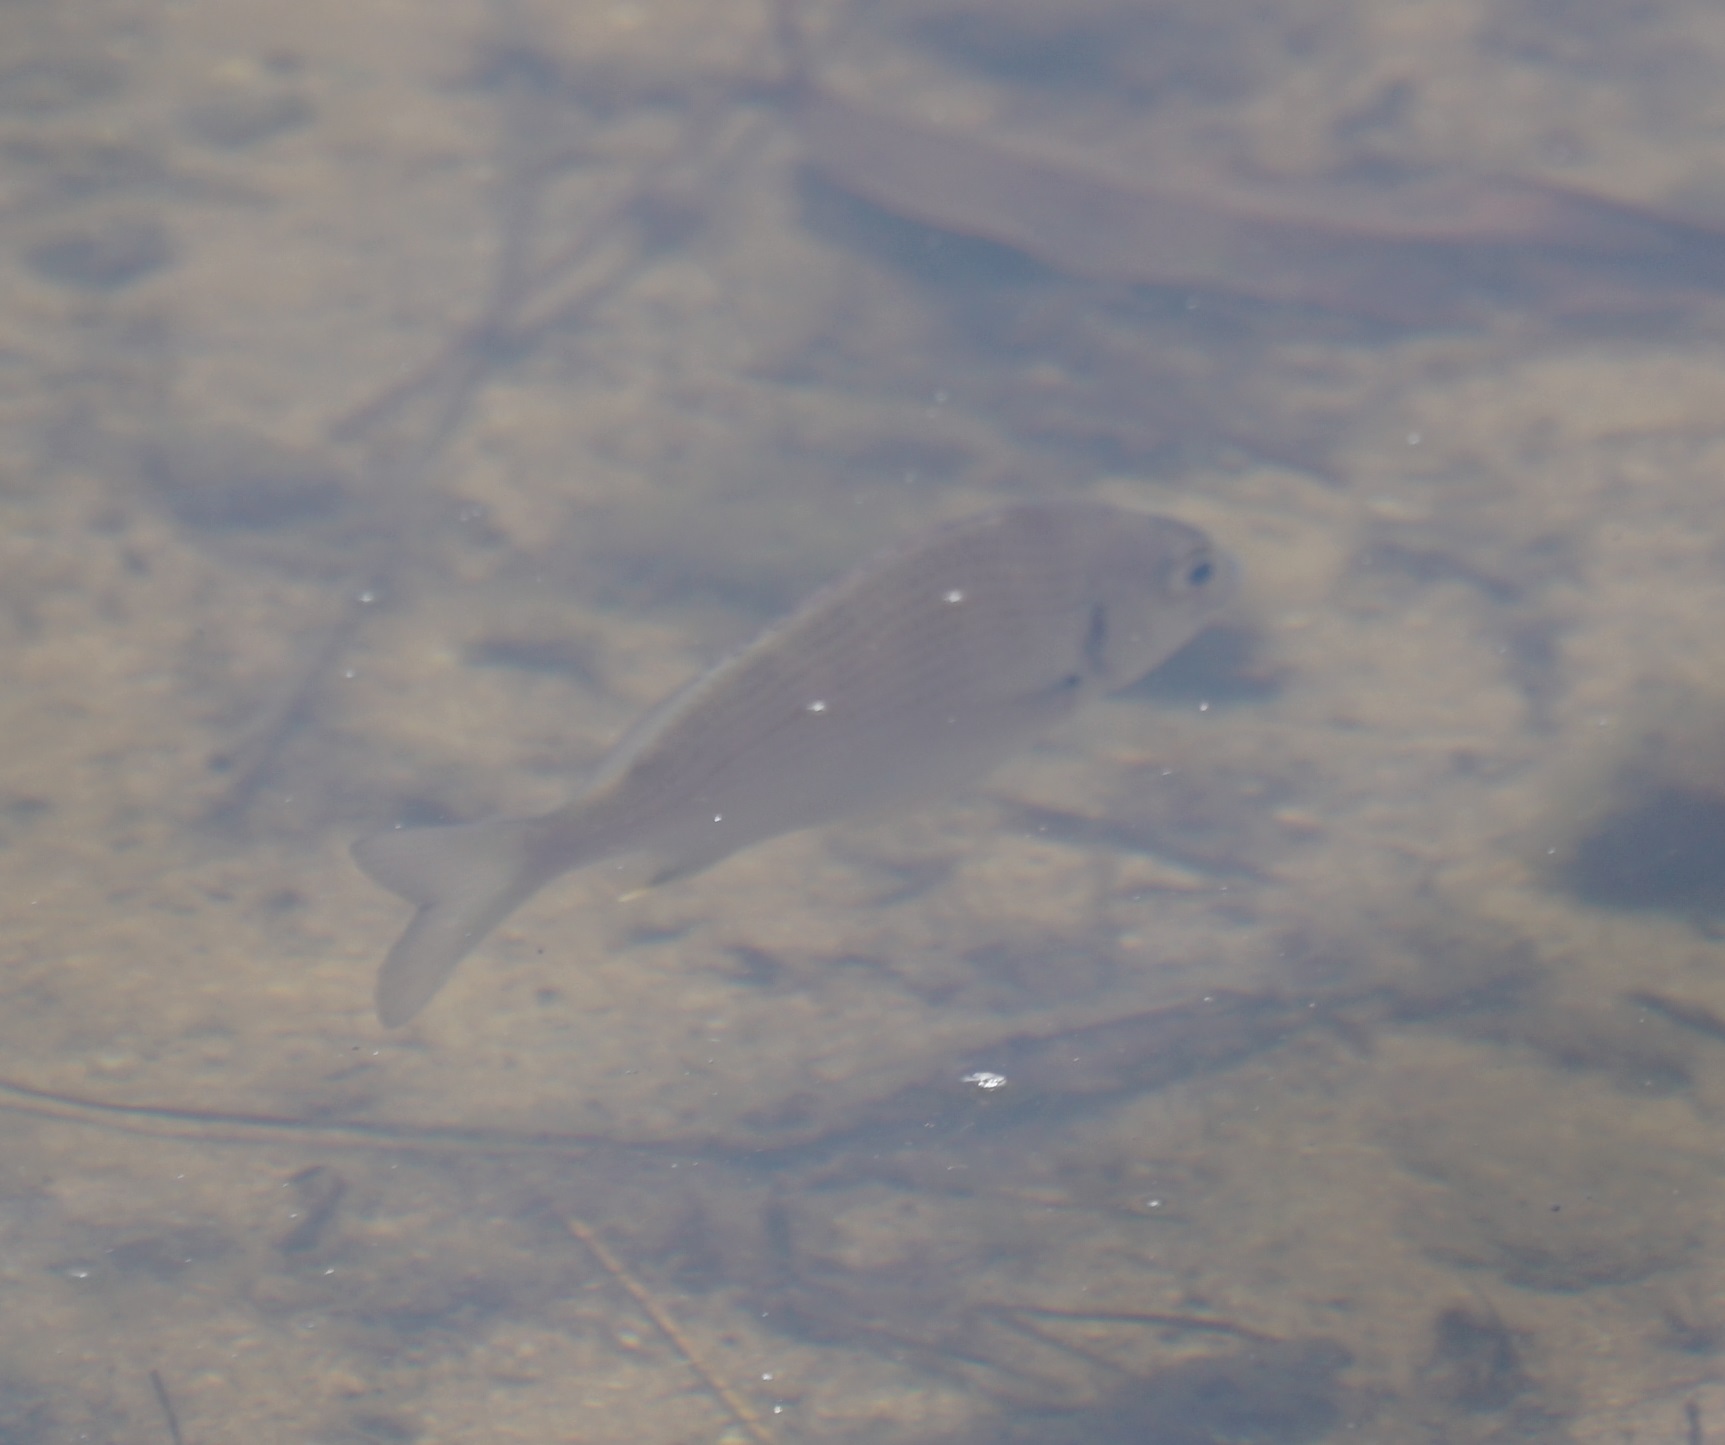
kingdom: Animalia
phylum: Chordata
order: Perciformes
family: Sparidae
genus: Acanthopagrus
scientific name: Acanthopagrus australis
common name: Surf bream
